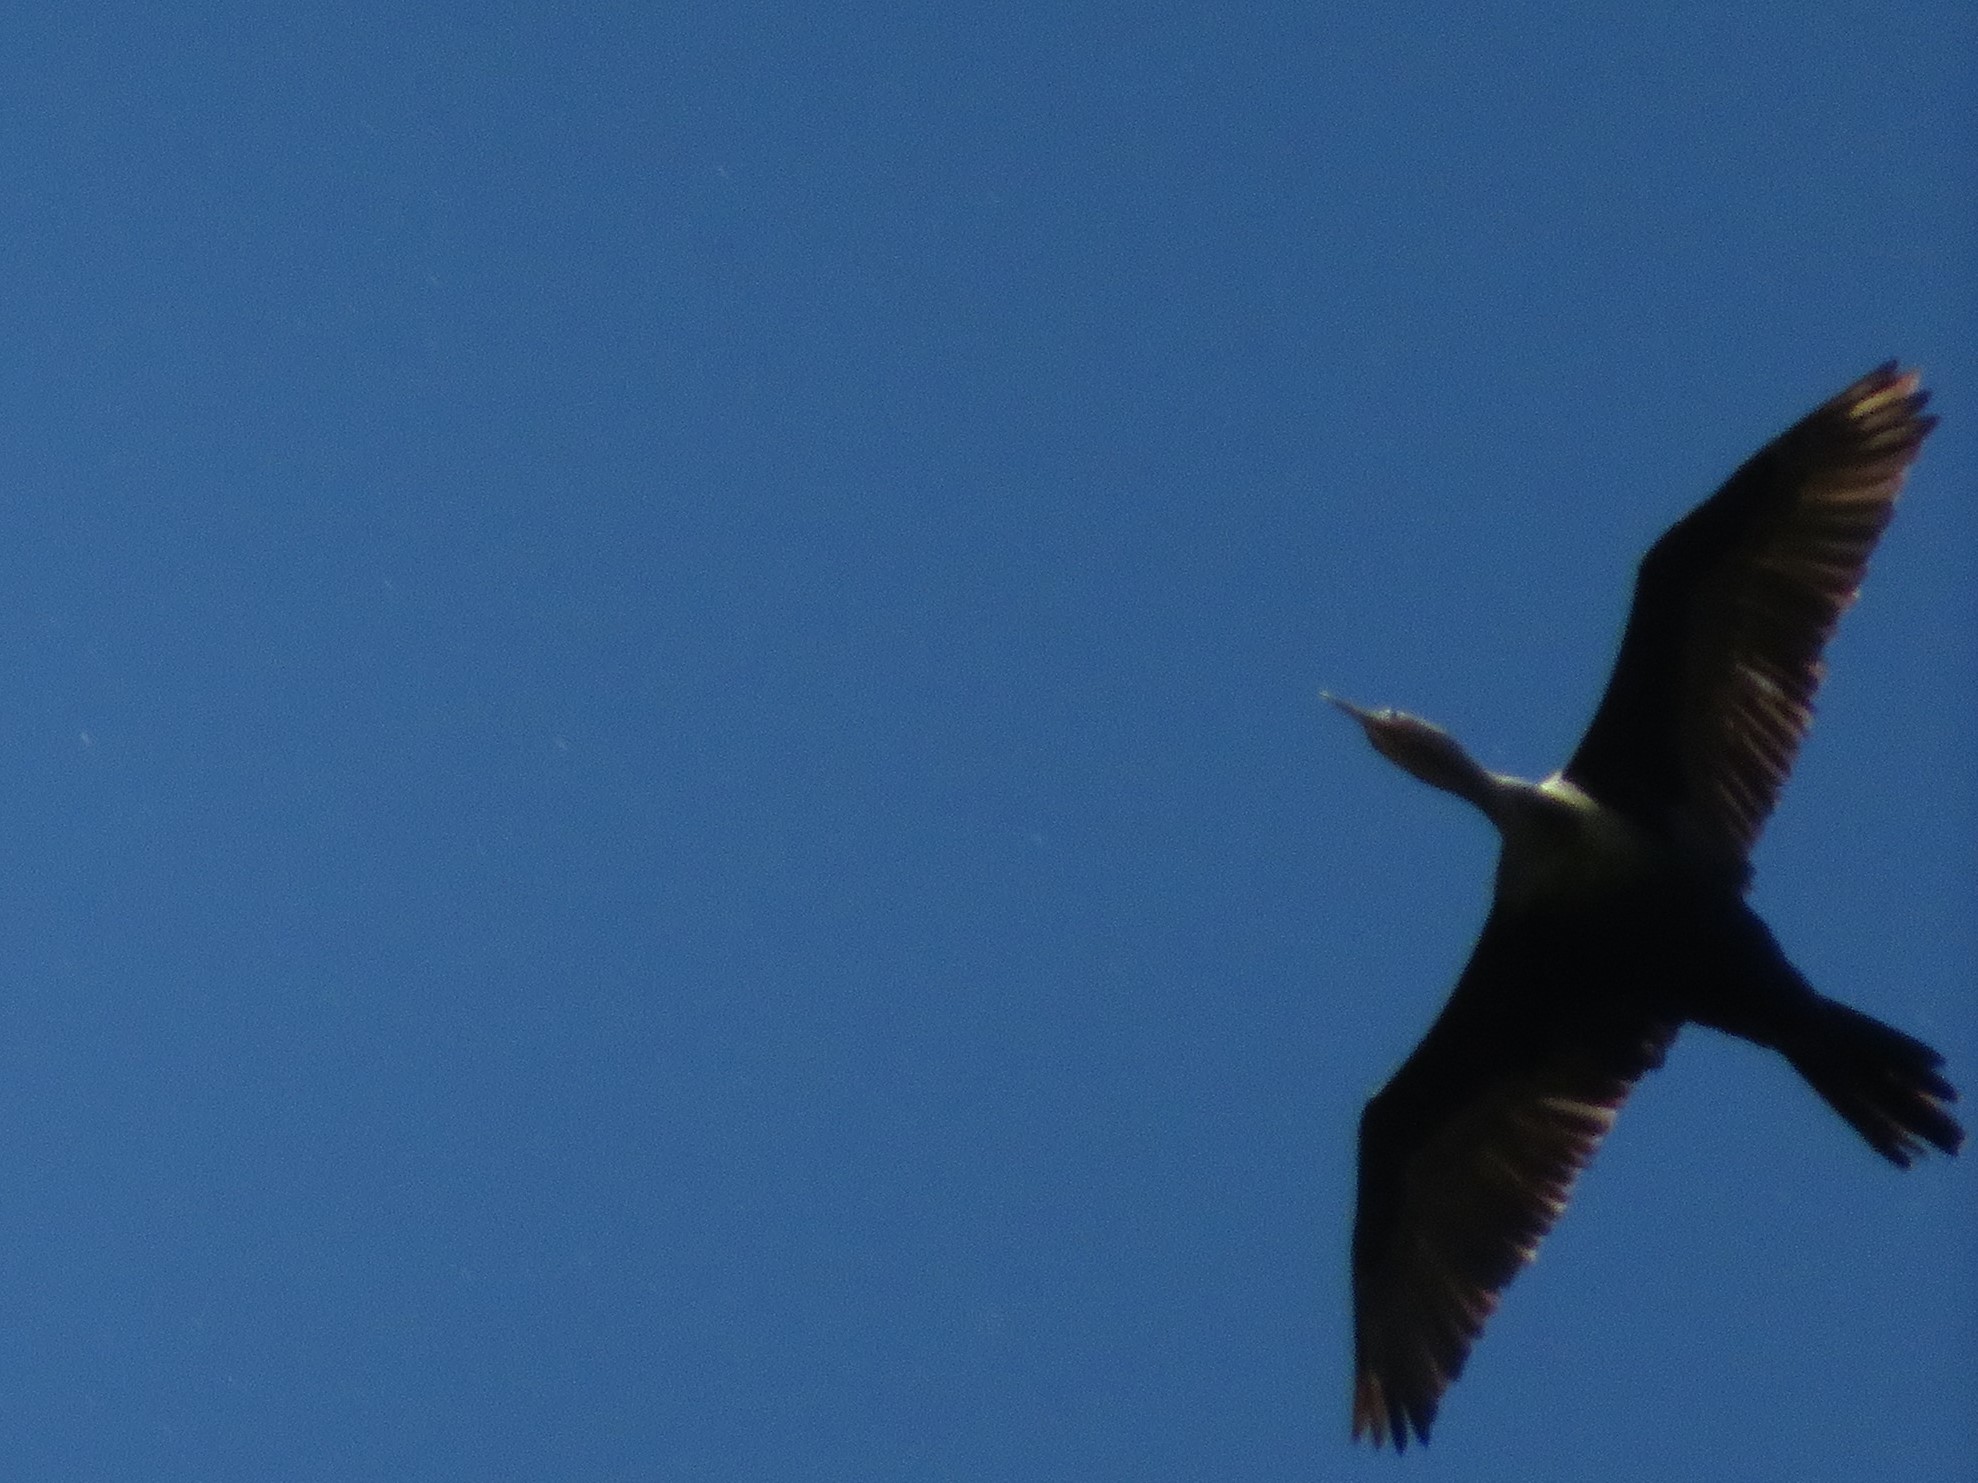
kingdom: Animalia
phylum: Chordata
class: Aves
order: Suliformes
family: Phalacrocoracidae
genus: Phalacrocorax
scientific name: Phalacrocorax brasilianus
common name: Neotropic cormorant
